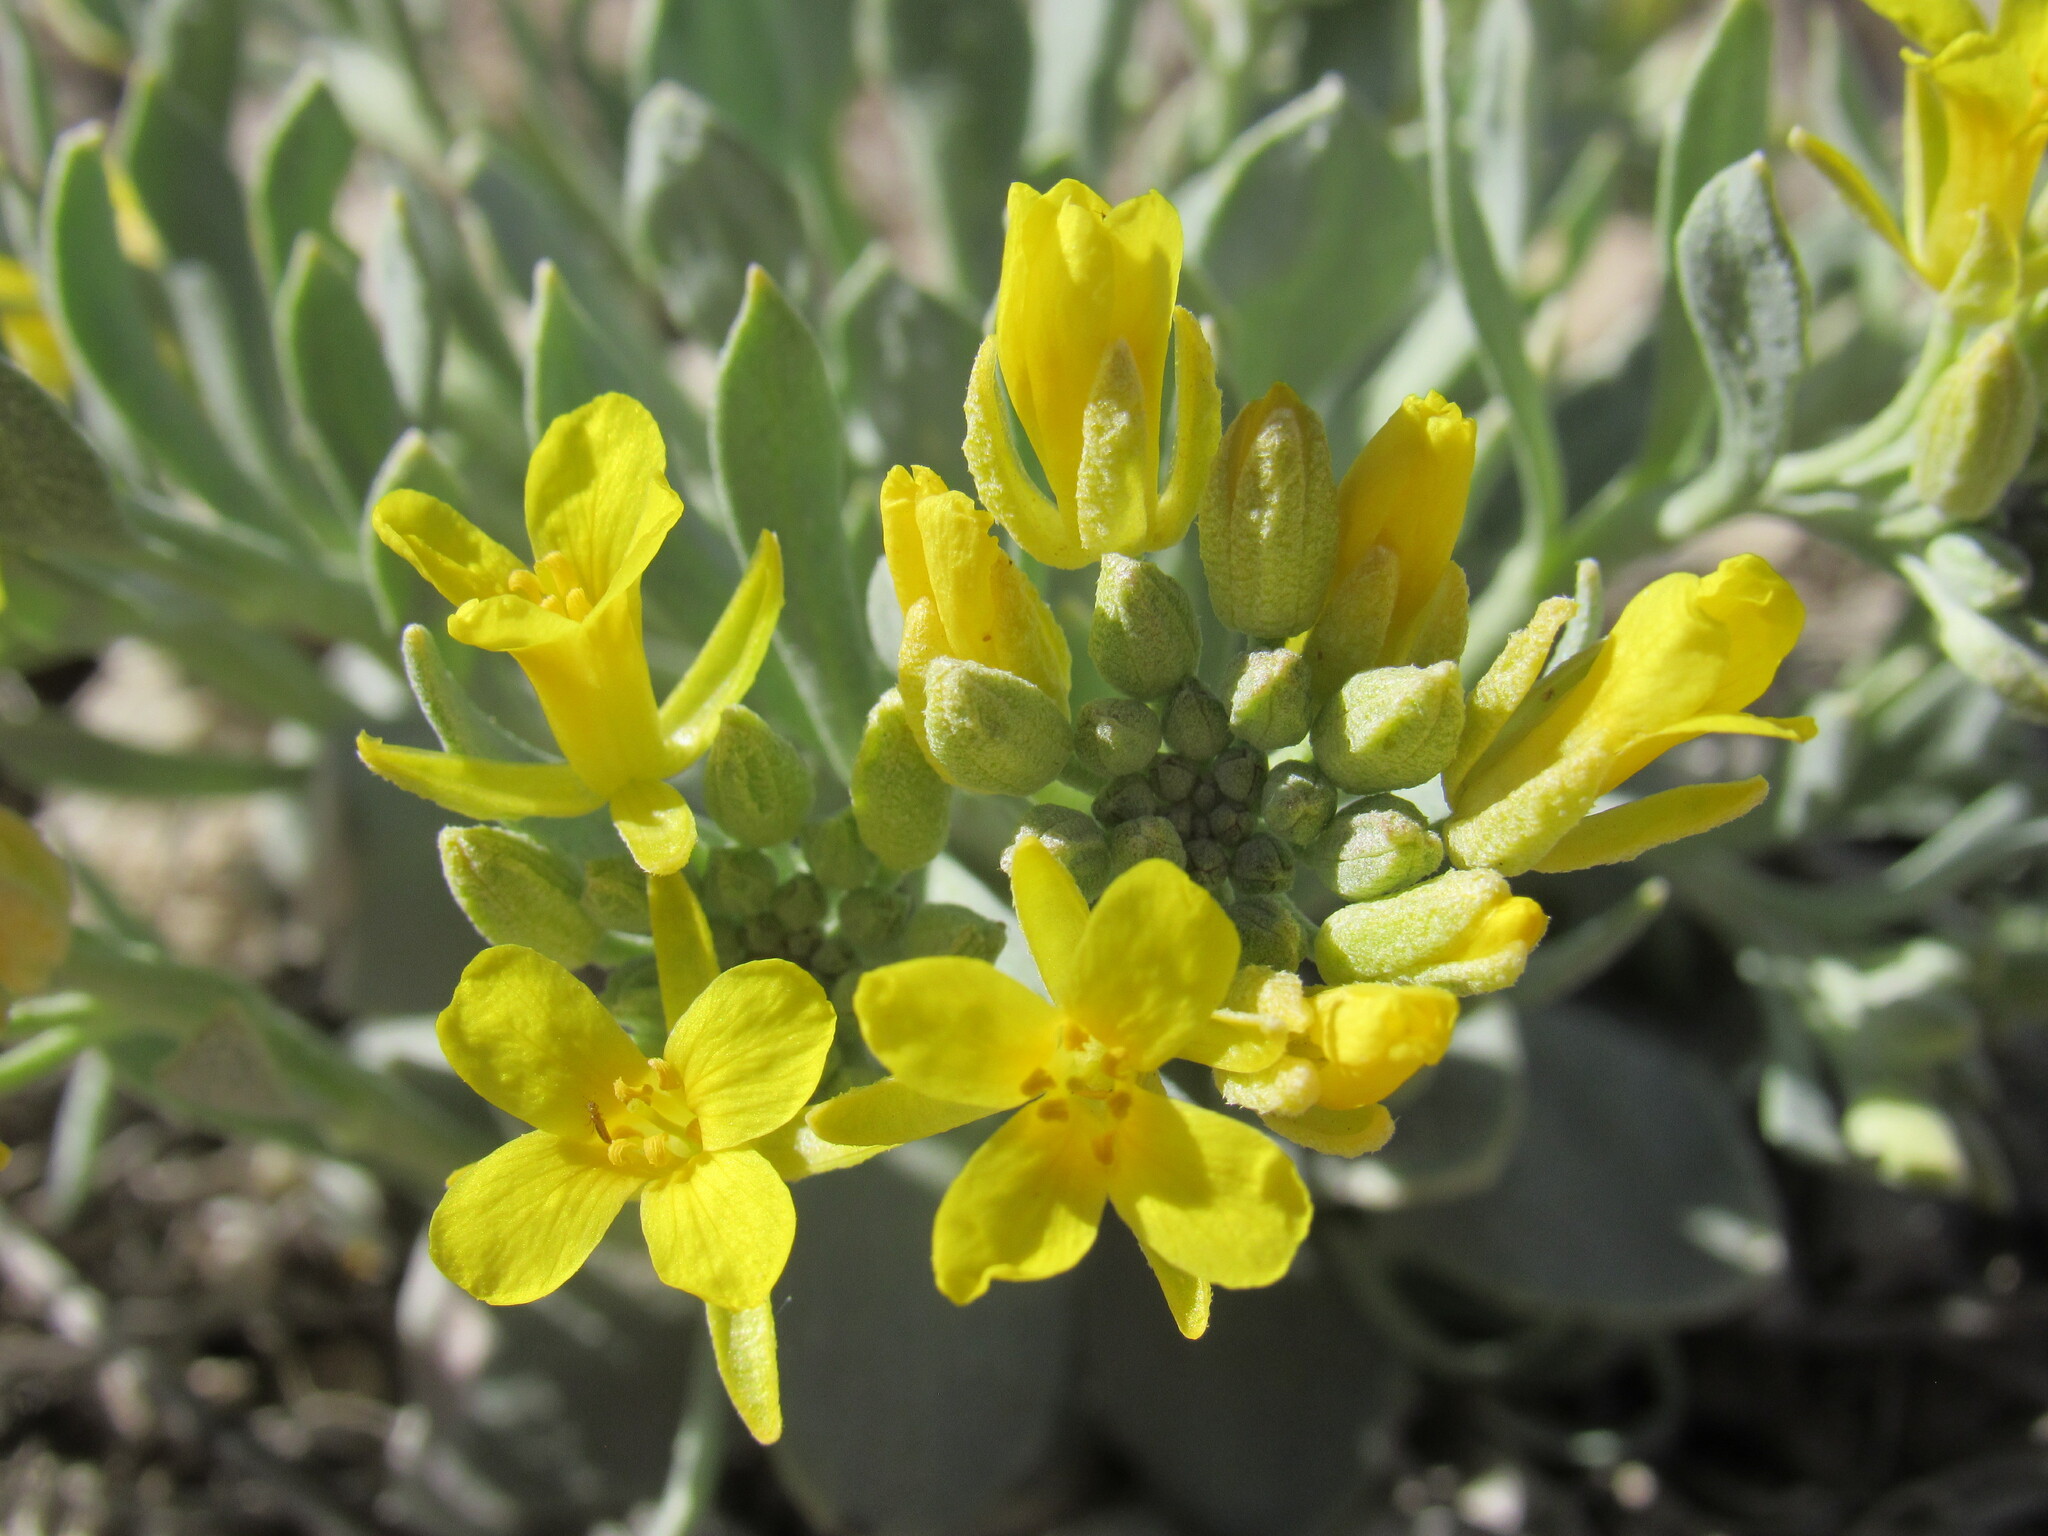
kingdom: Plantae
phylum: Tracheophyta
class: Magnoliopsida
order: Brassicales
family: Brassicaceae
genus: Physaria
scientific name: Physaria bellii
